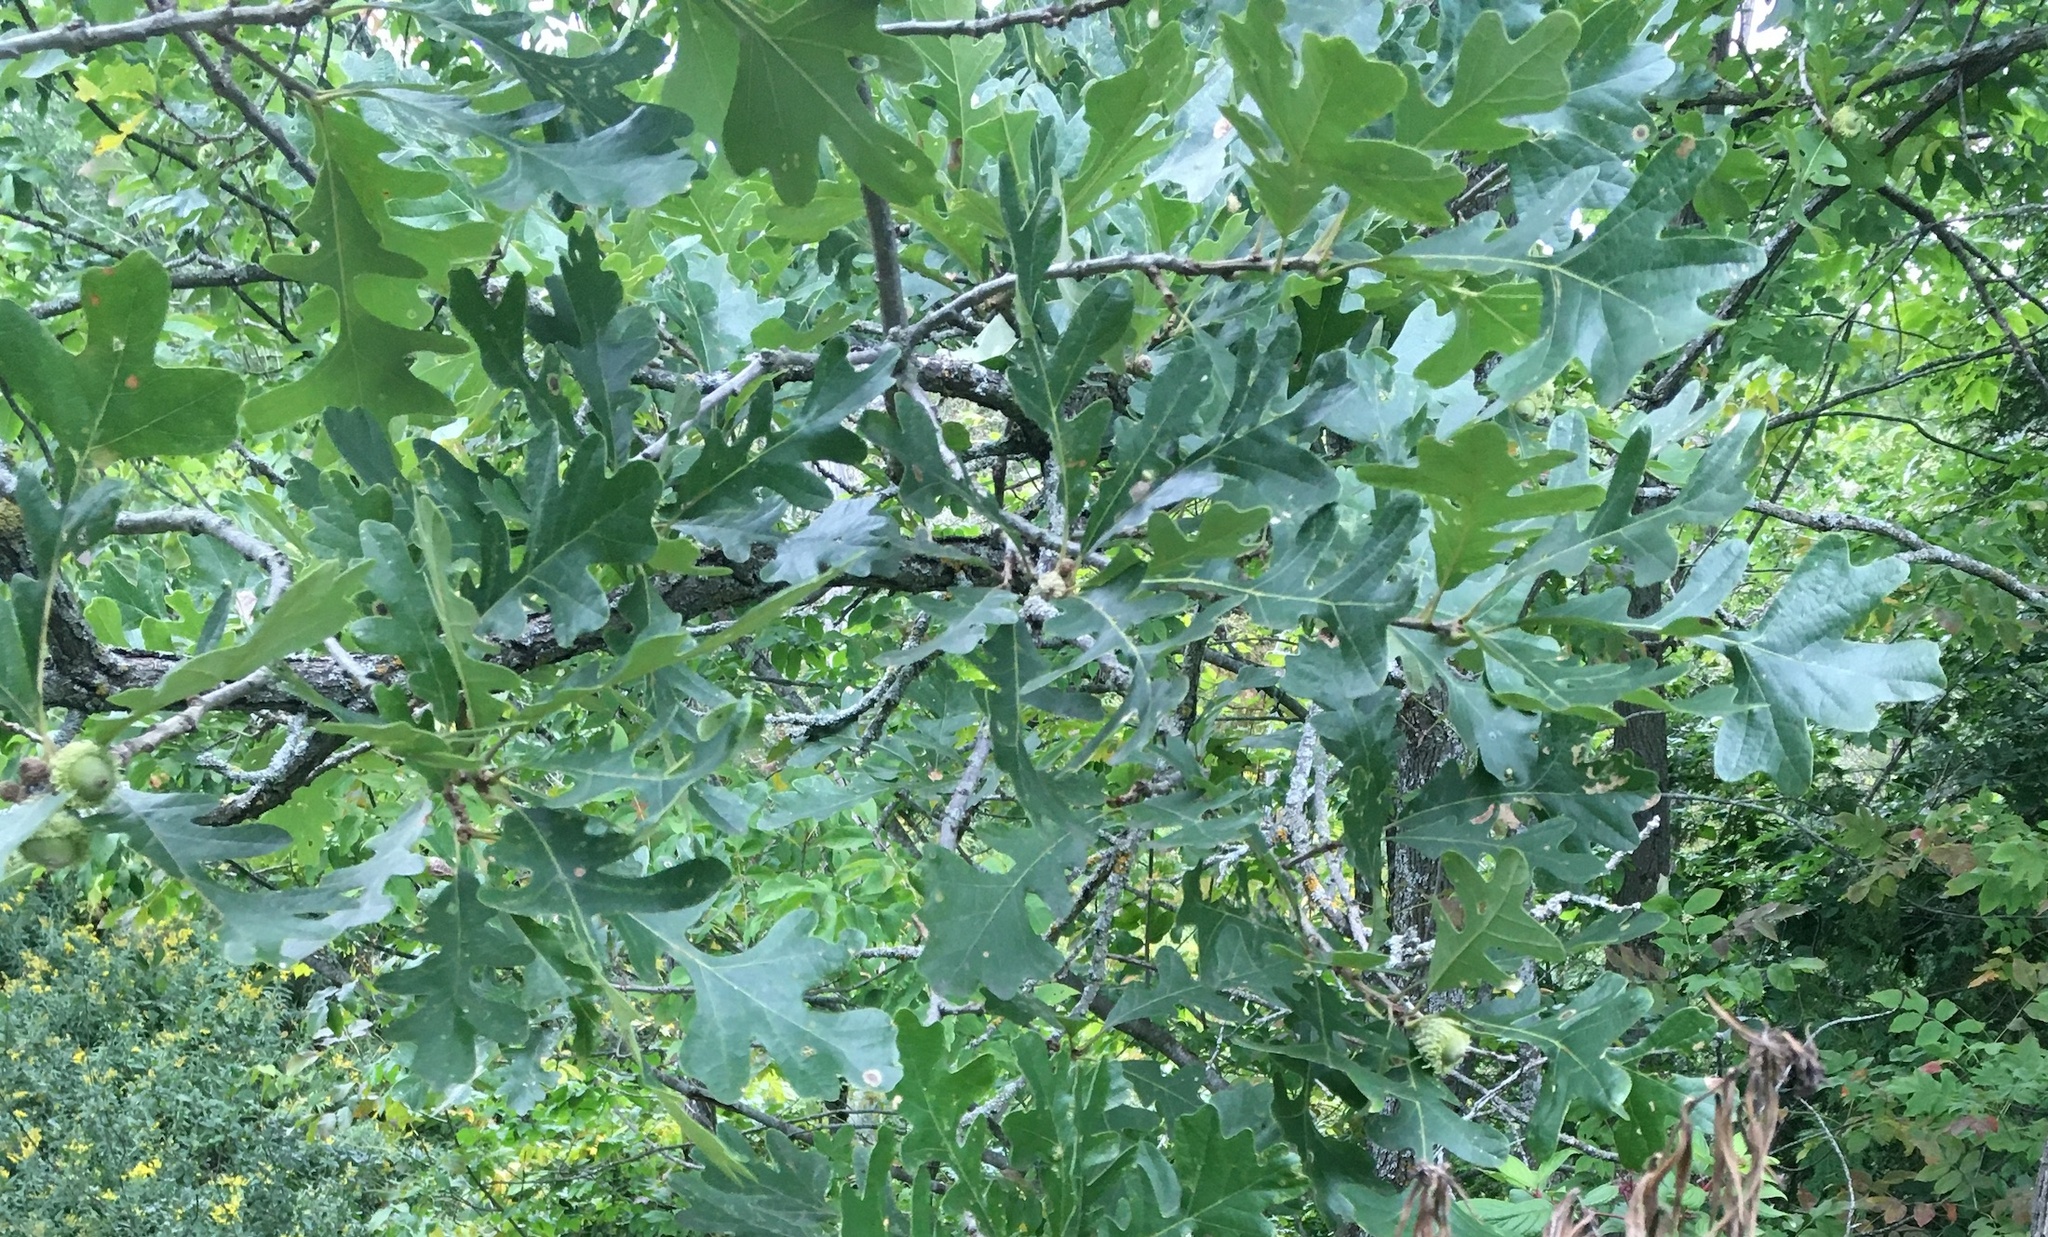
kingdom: Plantae
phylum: Tracheophyta
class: Magnoliopsida
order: Fagales
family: Fagaceae
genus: Quercus
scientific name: Quercus macrocarpa
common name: Bur oak
